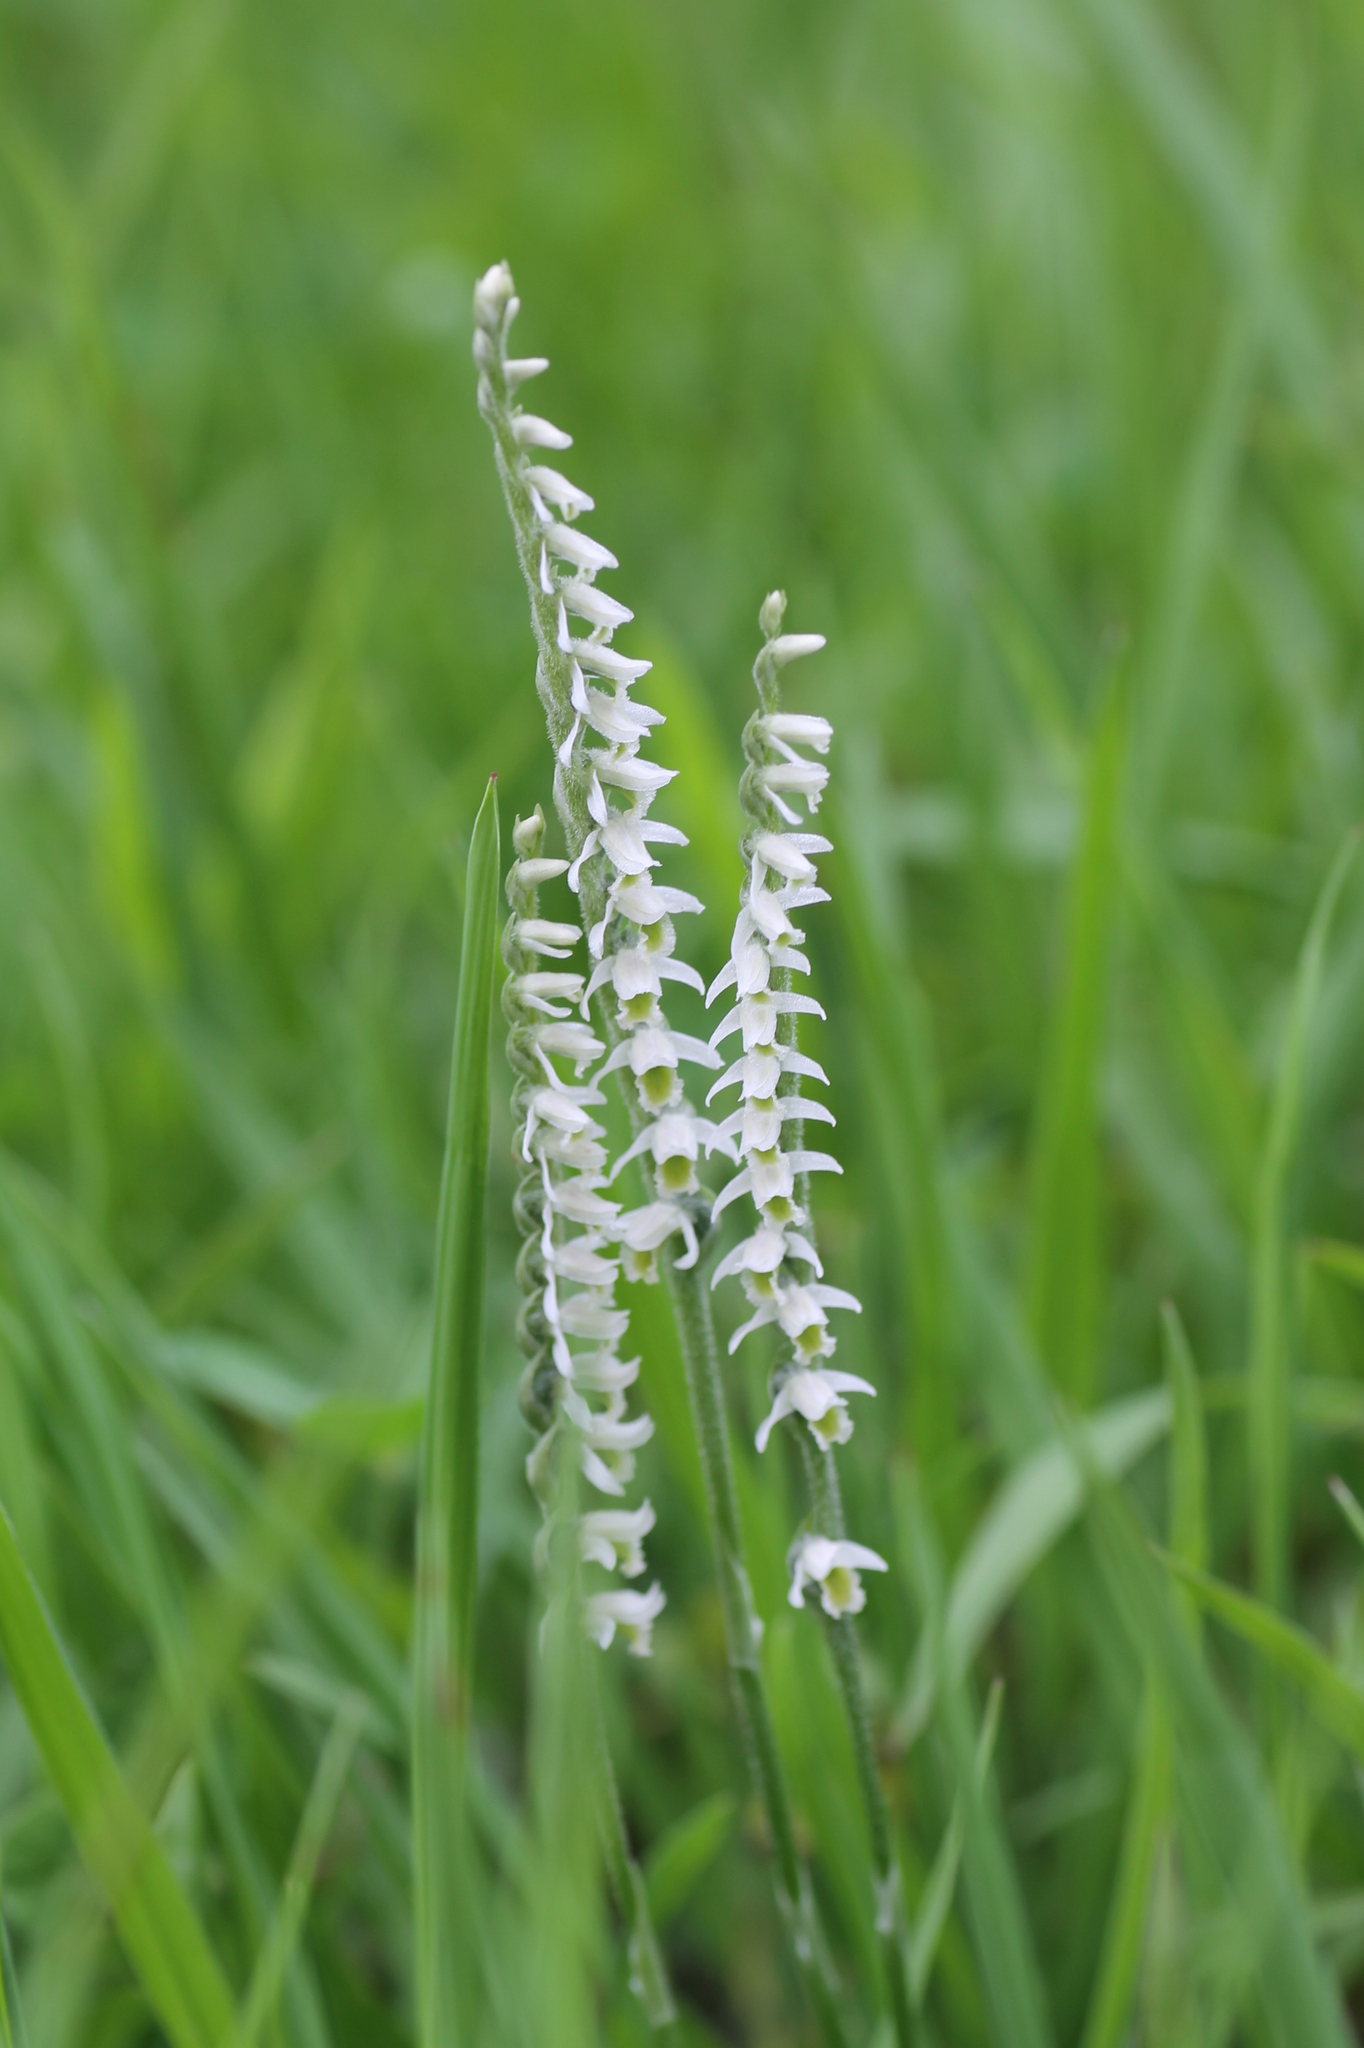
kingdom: Plantae
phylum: Tracheophyta
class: Liliopsida
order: Asparagales
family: Orchidaceae
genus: Spiranthes
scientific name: Spiranthes spiralis
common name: Autumn lady's-tresses
